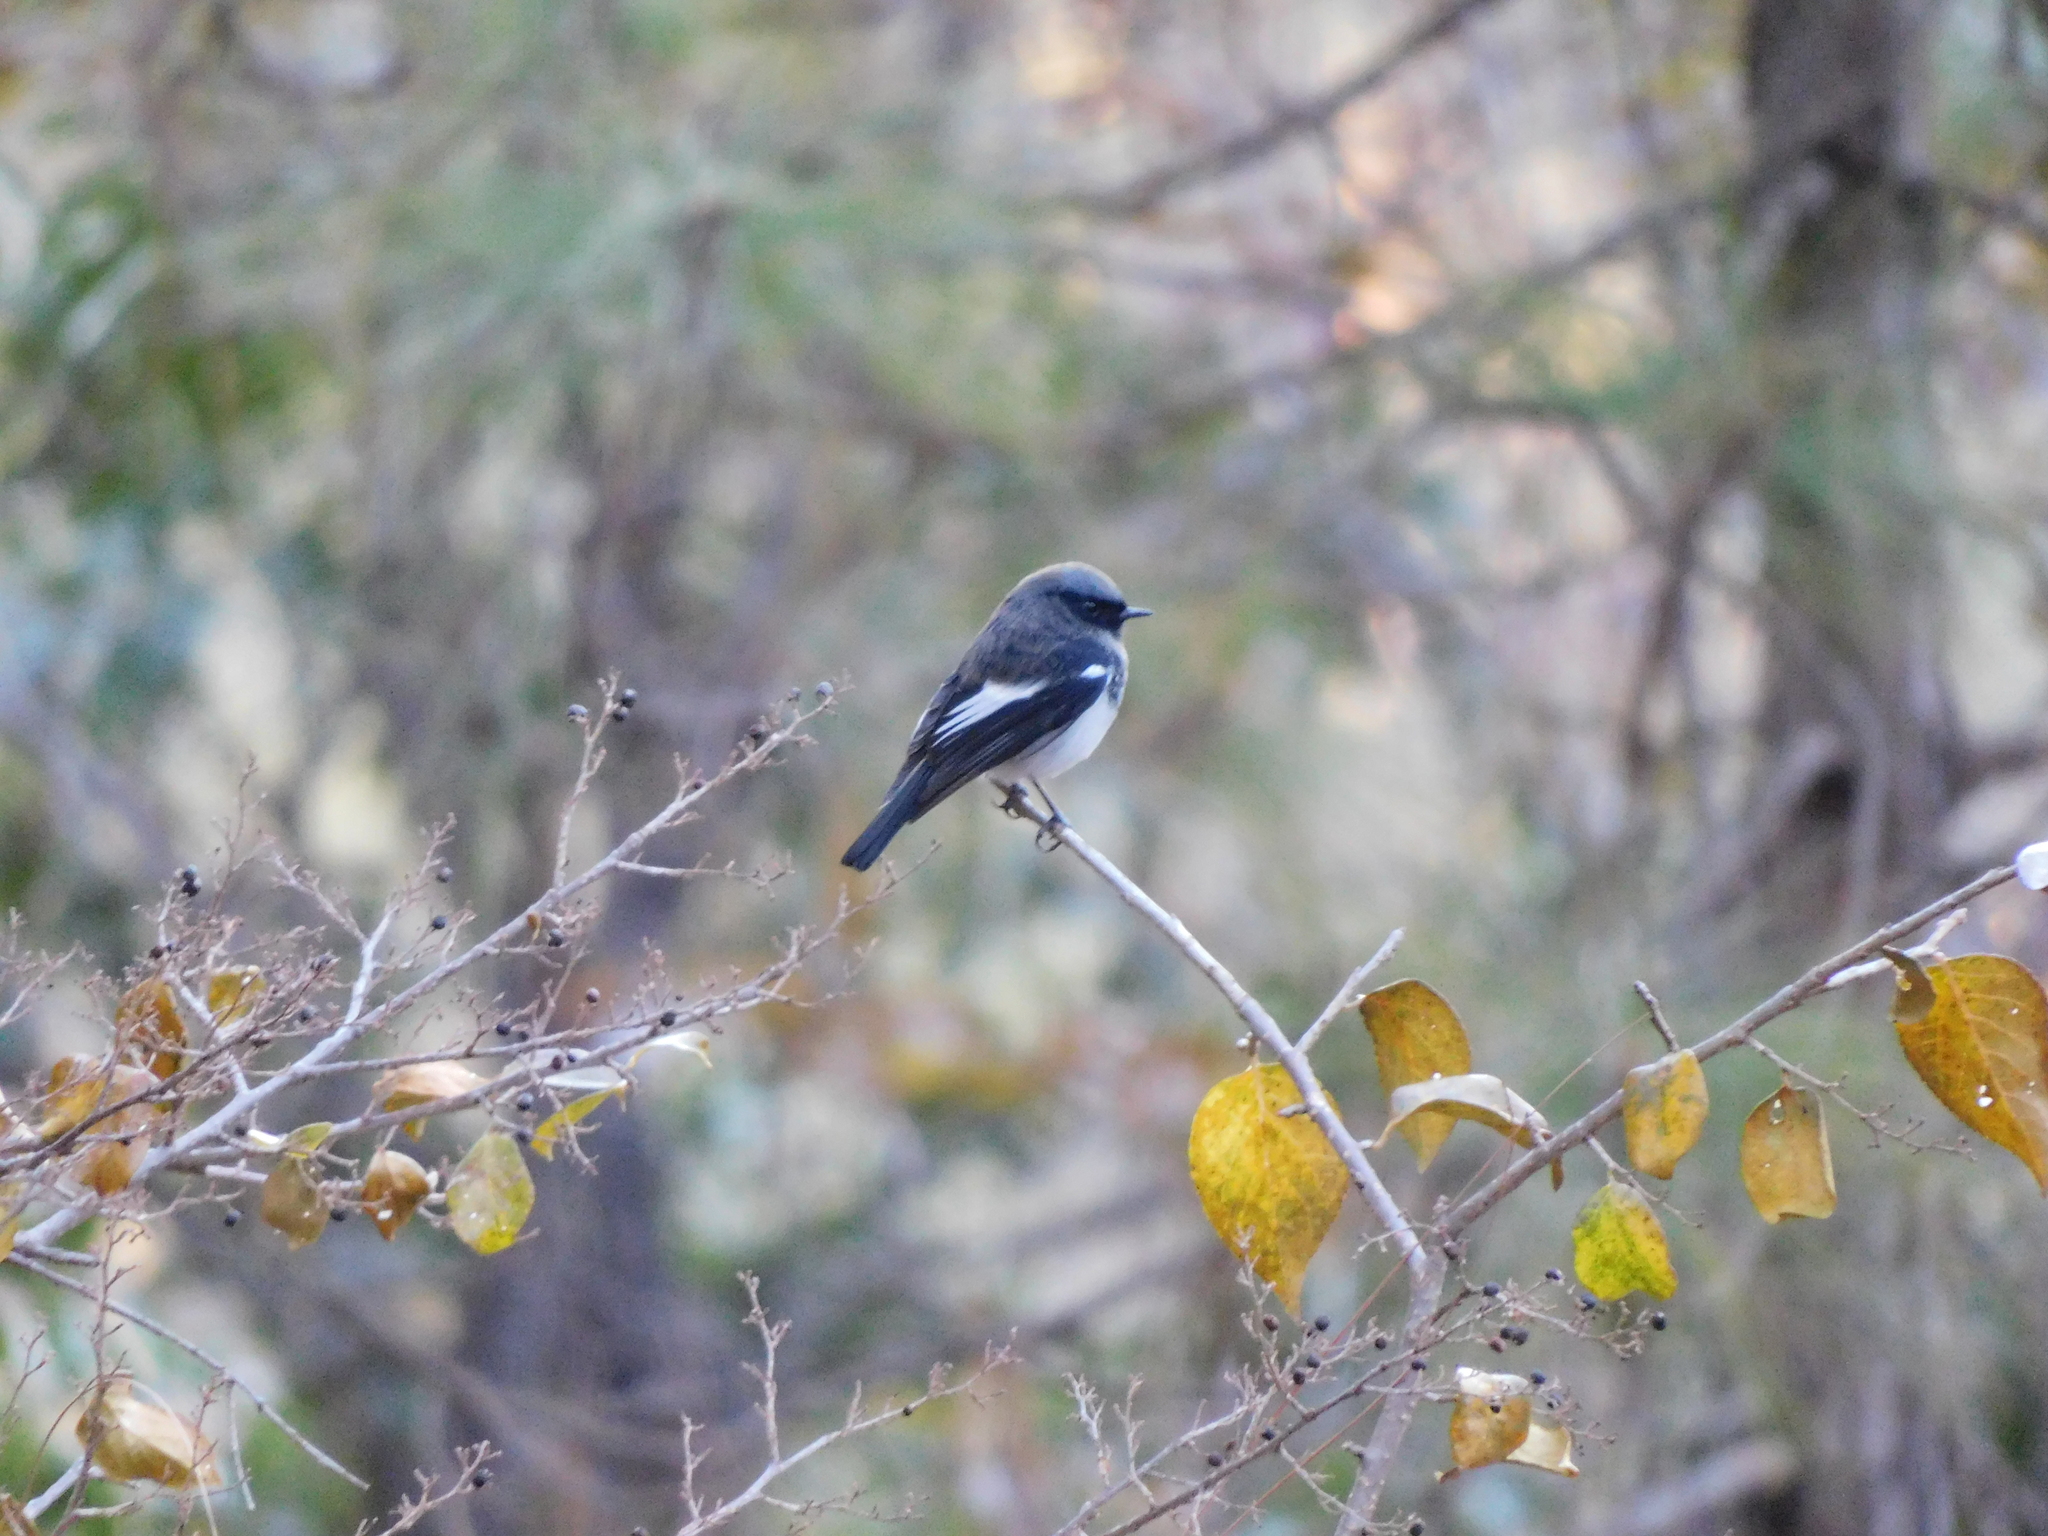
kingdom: Animalia
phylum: Chordata
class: Aves
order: Passeriformes
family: Muscicapidae
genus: Phoenicurus
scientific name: Phoenicurus coeruleocephala
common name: Blue-capped redstart
